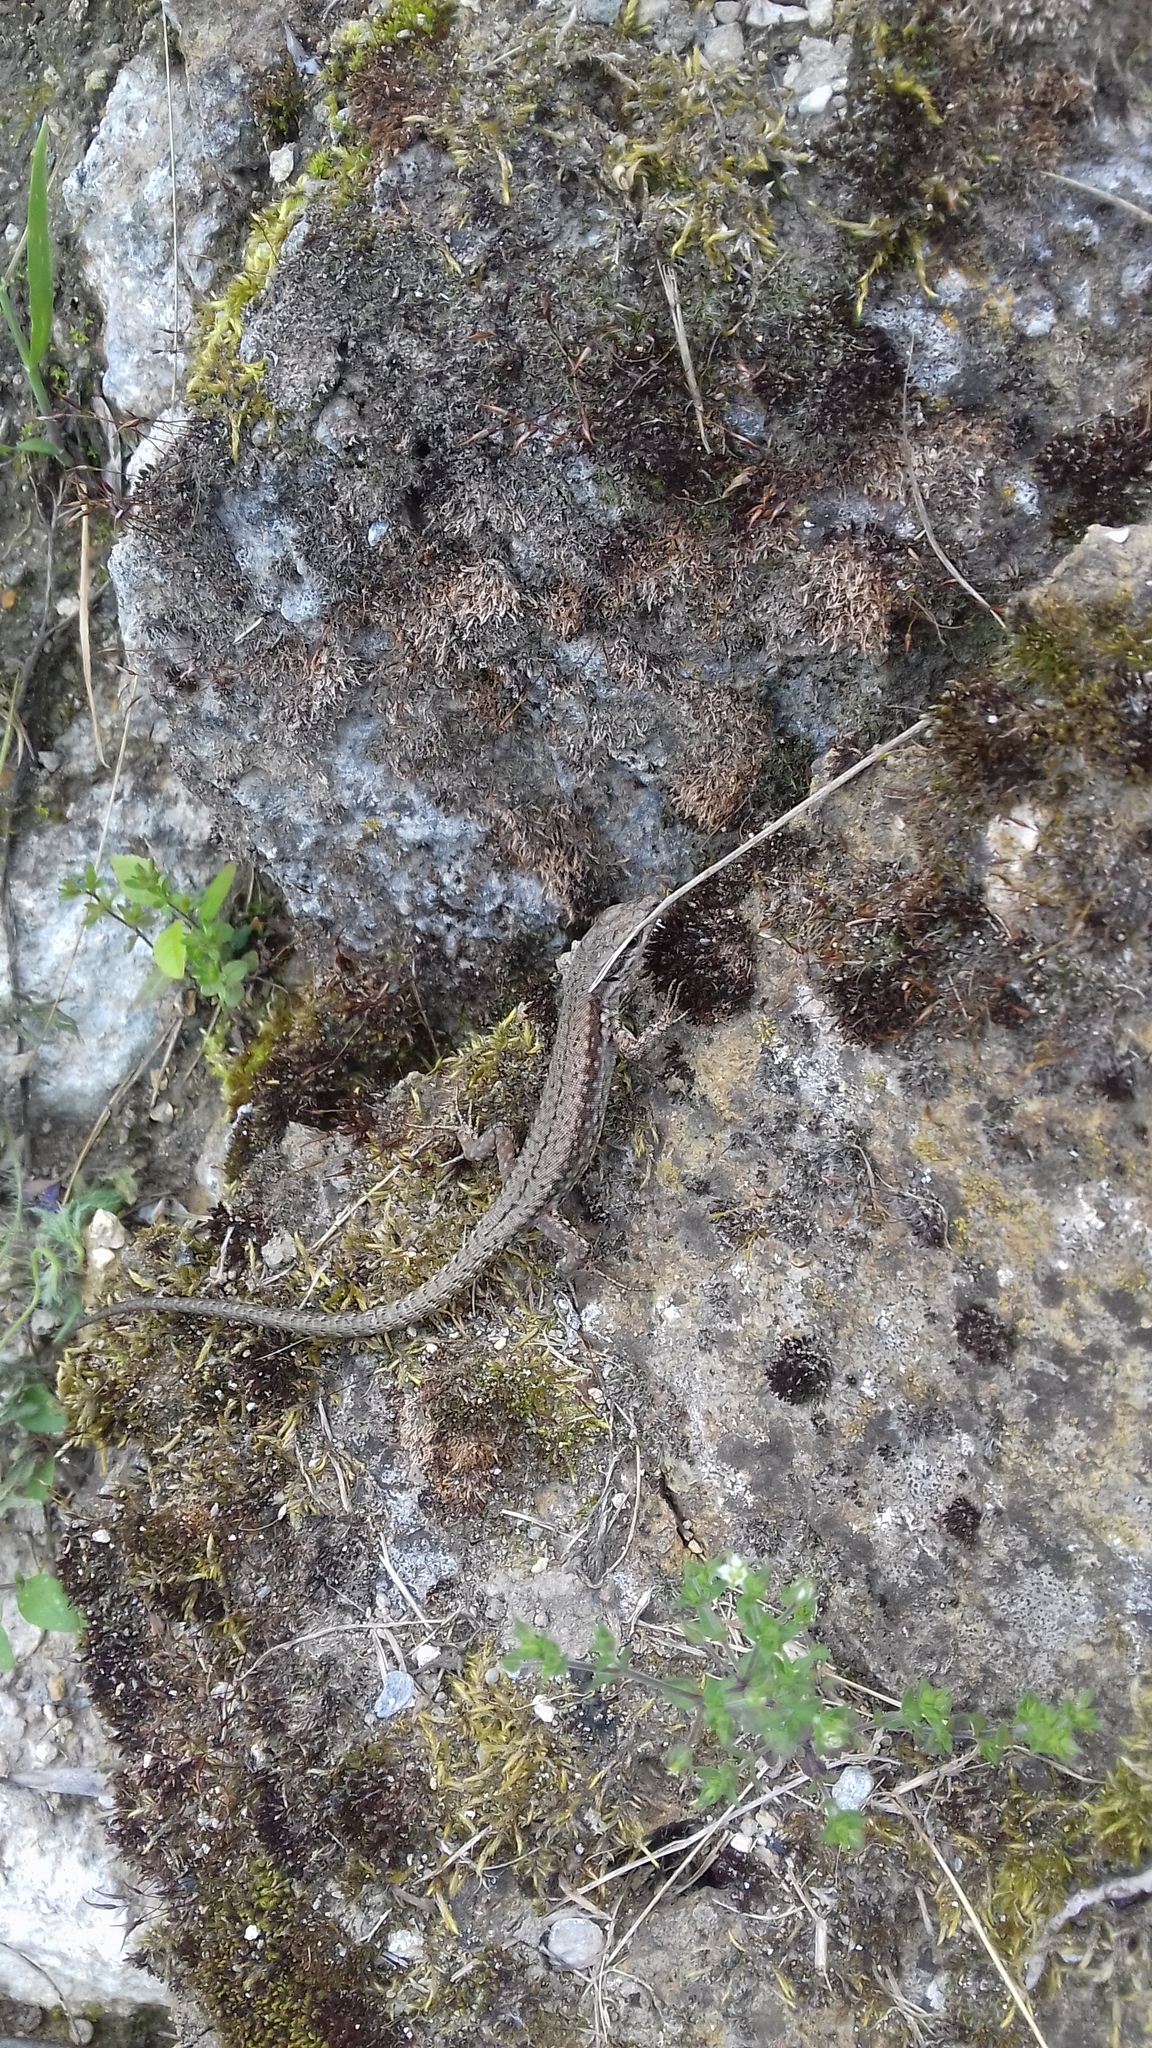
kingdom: Animalia
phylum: Chordata
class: Squamata
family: Lacertidae
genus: Podarcis
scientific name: Podarcis muralis
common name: Common wall lizard
